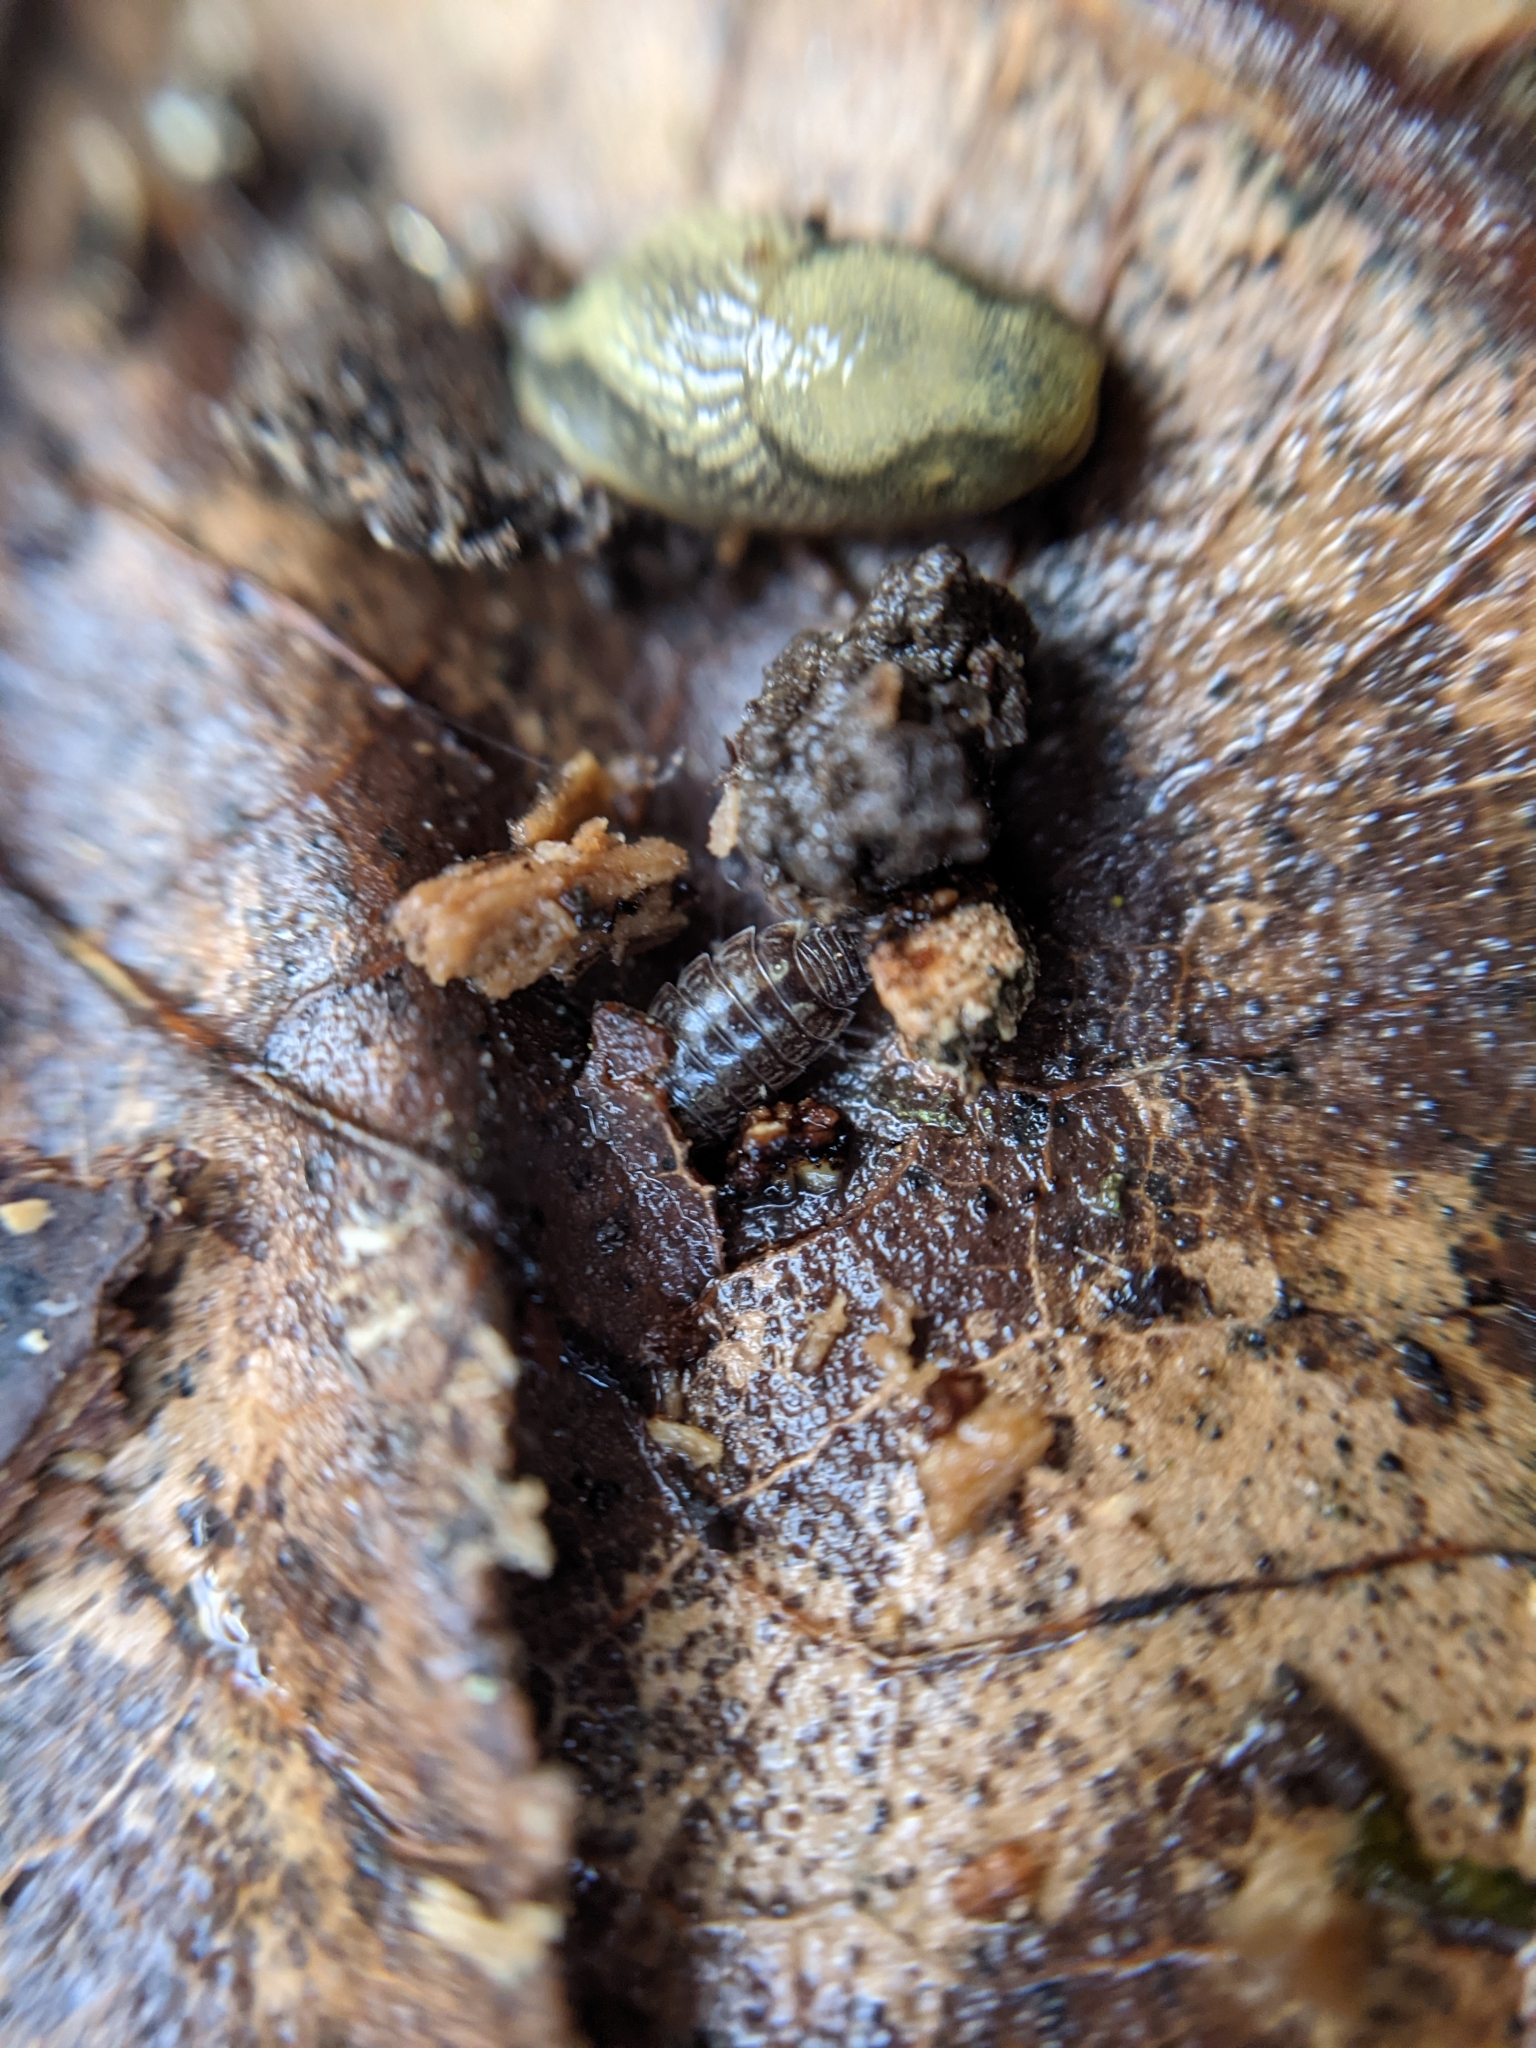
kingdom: Animalia
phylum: Mollusca
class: Gastropoda
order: Stylommatophora
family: Arionidae
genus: Arion
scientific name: Arion vulgaris
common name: Lusitanian slug
